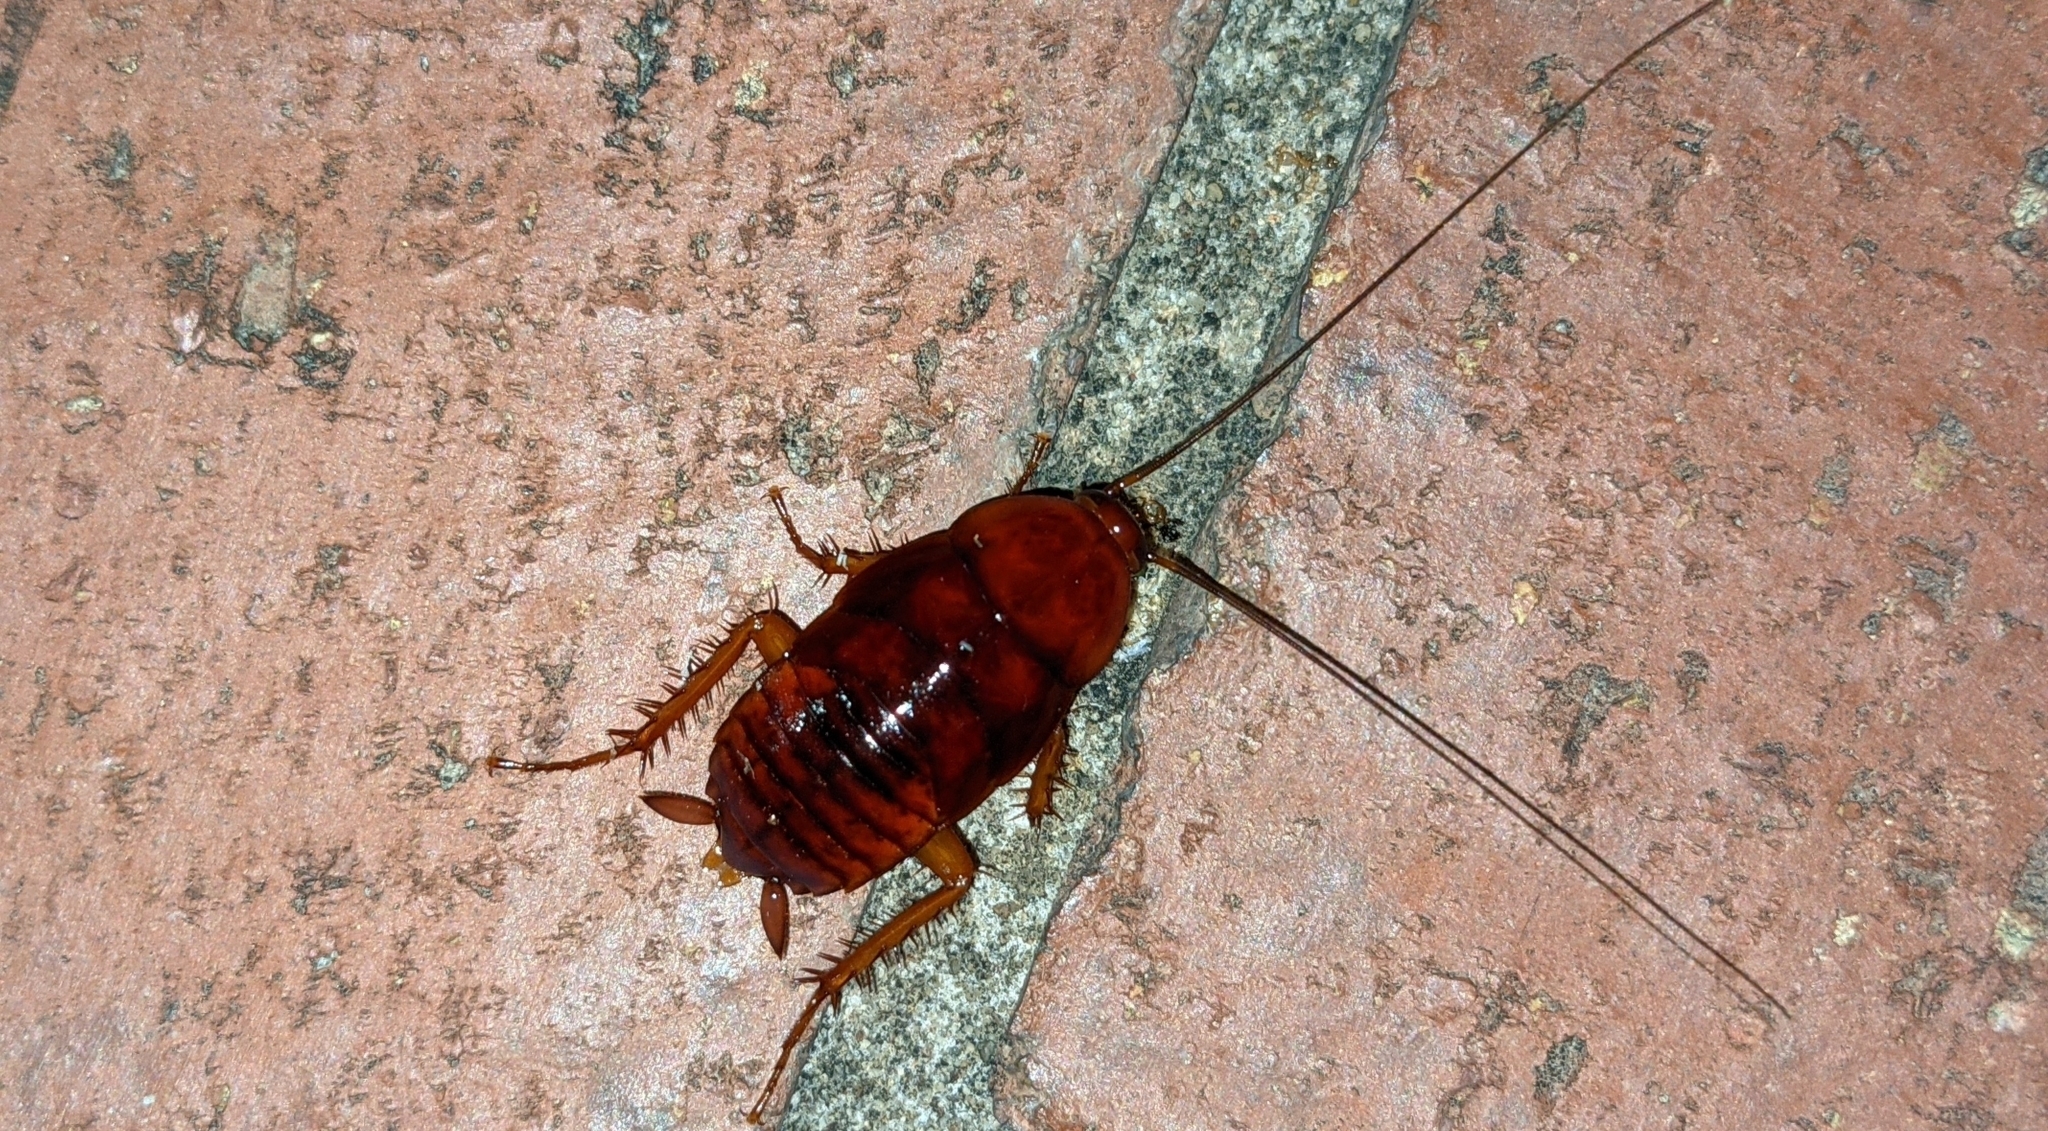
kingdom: Animalia
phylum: Arthropoda
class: Insecta
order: Blattodea
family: Blattidae
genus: Periplaneta
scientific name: Periplaneta fuliginosa
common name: Smokeybrown cockroad
